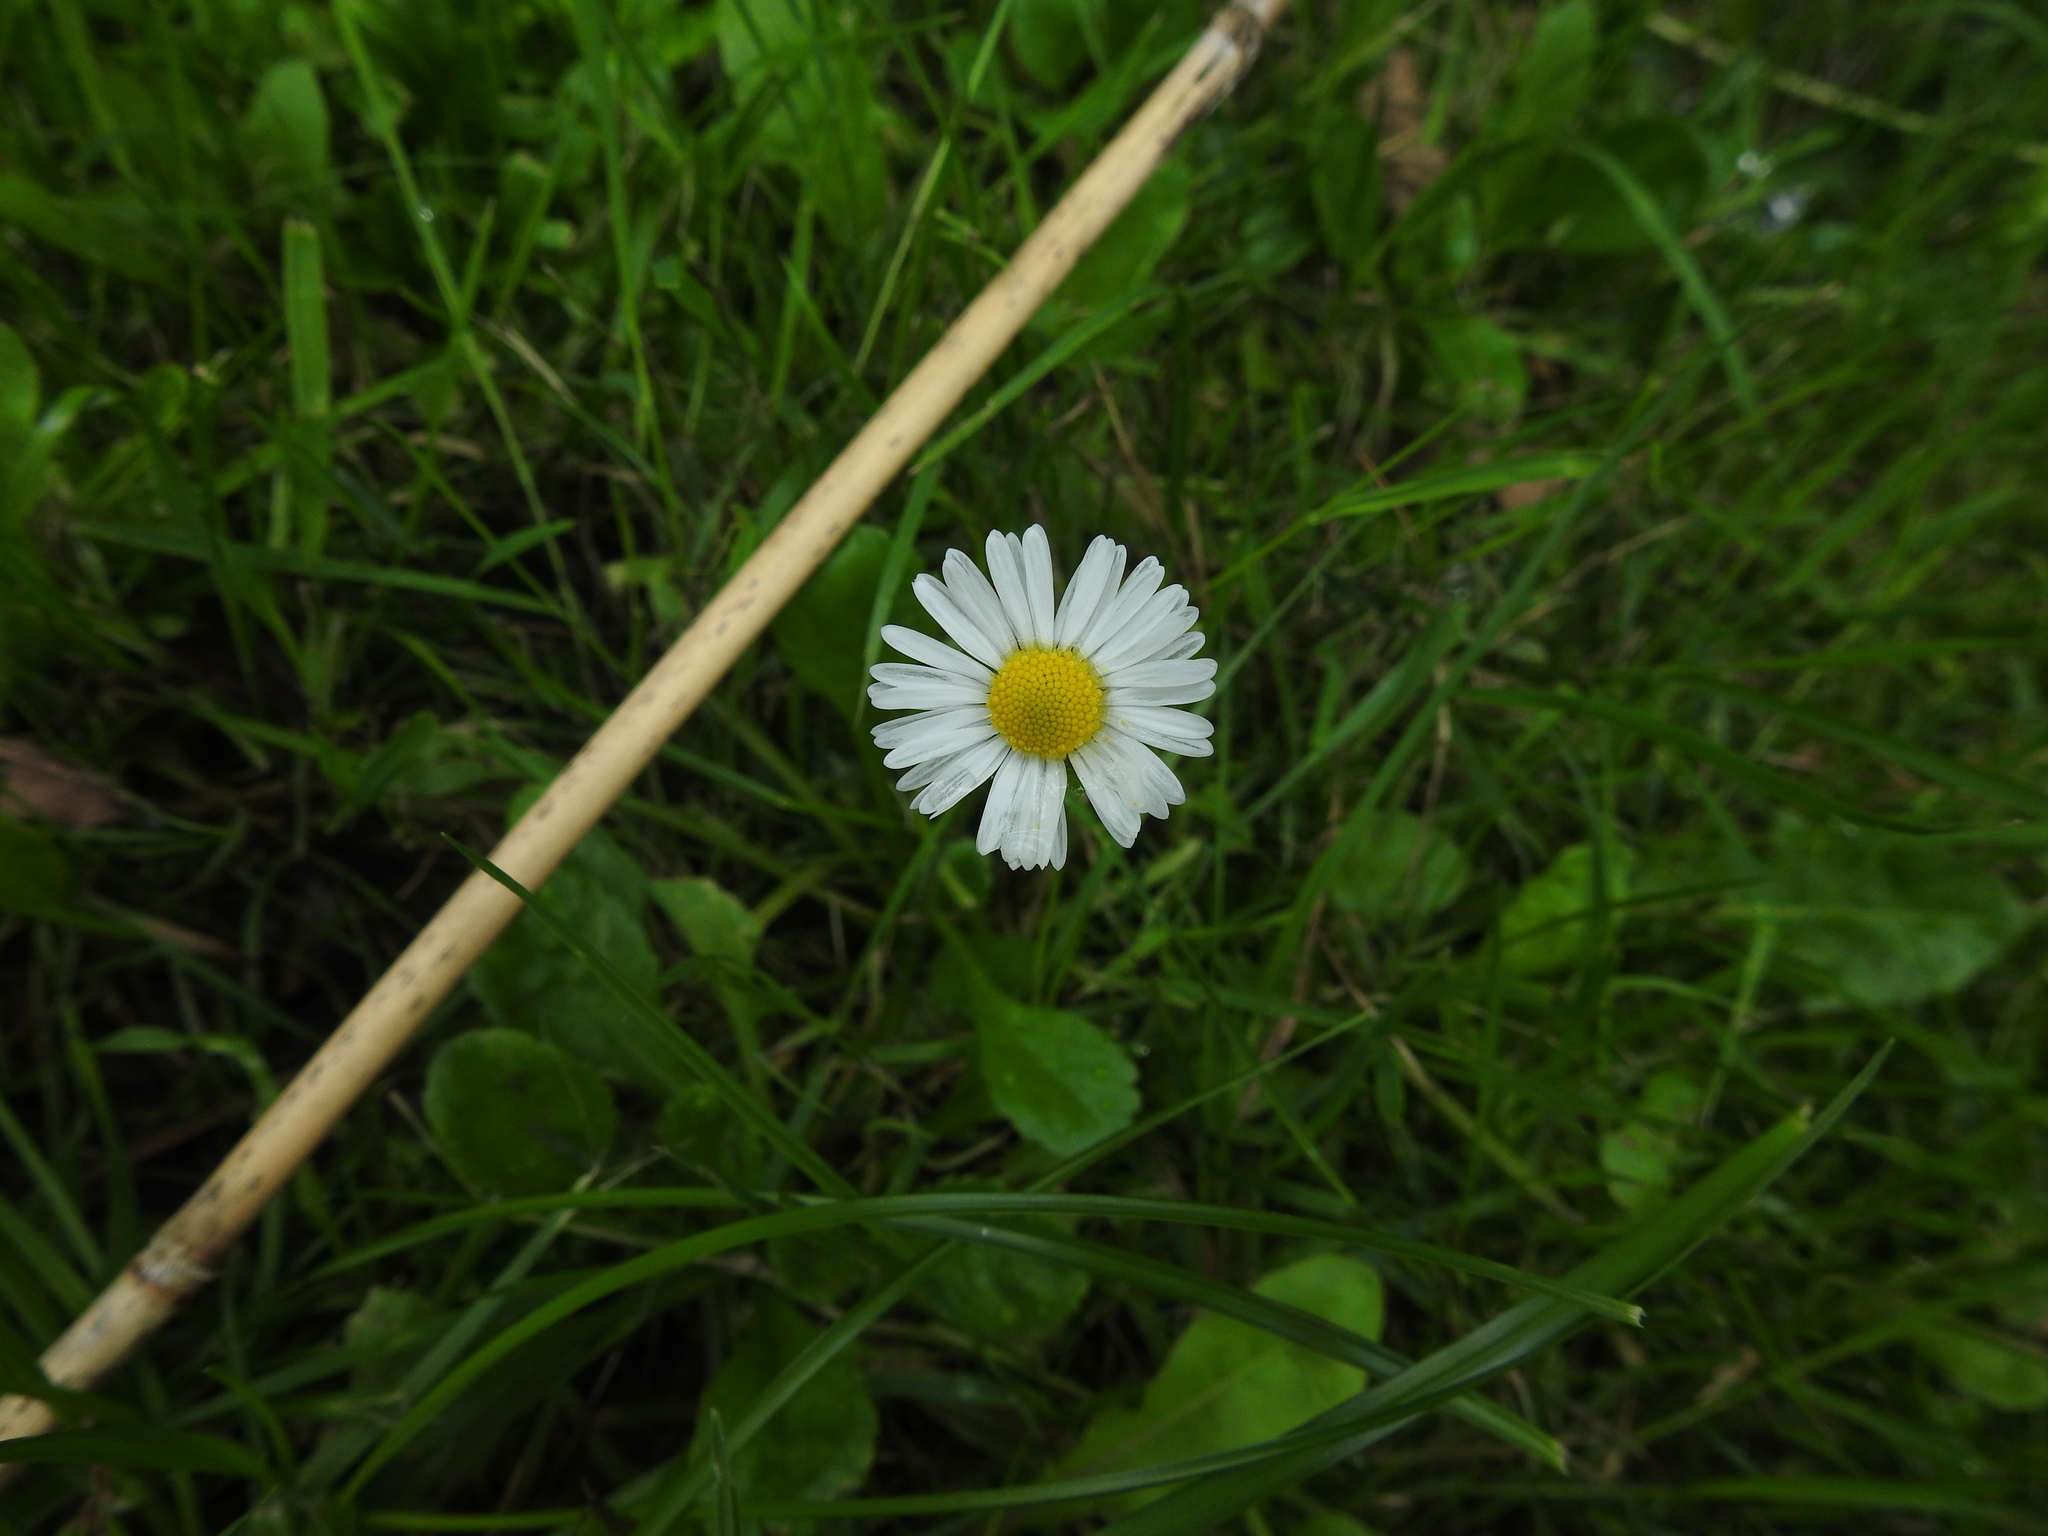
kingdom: Plantae
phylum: Tracheophyta
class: Magnoliopsida
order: Asterales
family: Asteraceae
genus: Bellis
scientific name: Bellis perennis
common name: Lawndaisy
